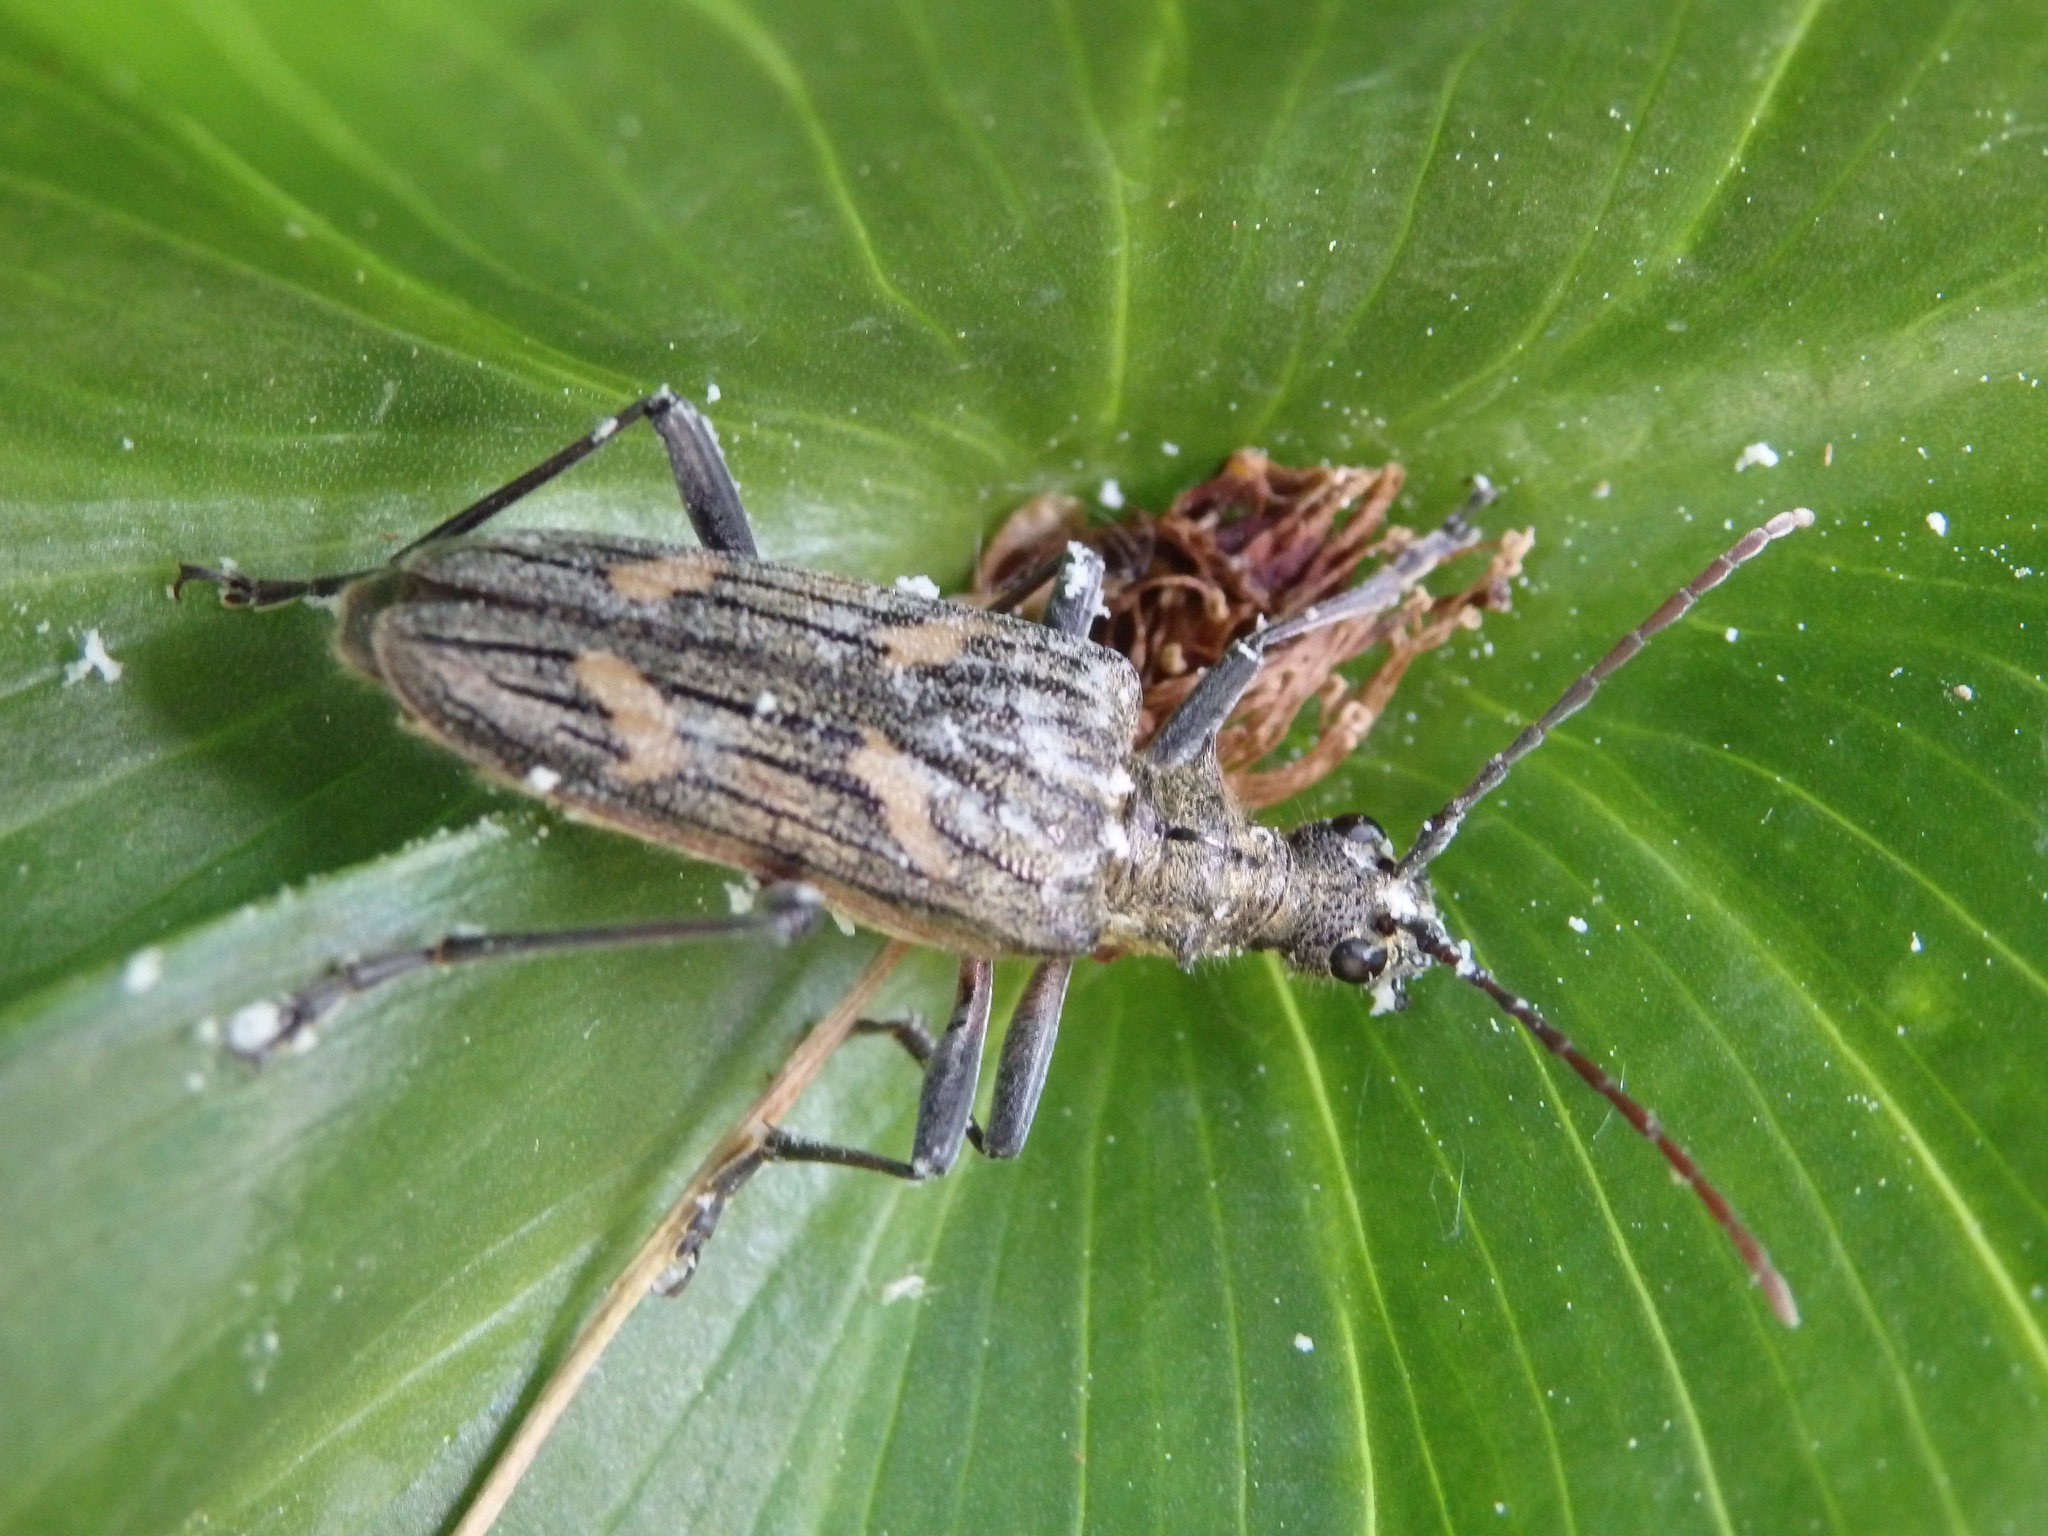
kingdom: Animalia
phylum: Arthropoda
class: Insecta
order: Coleoptera
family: Cerambycidae
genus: Rhagium
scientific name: Rhagium bifasciatum
